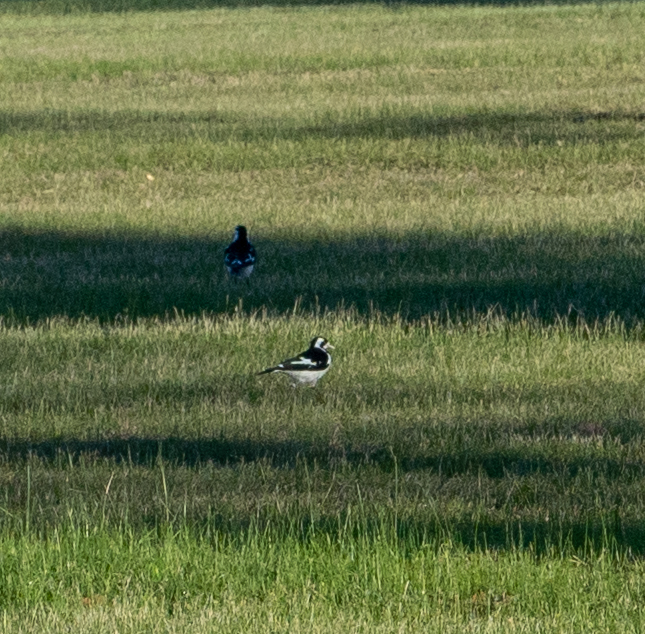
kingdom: Animalia
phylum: Chordata
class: Aves
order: Passeriformes
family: Monarchidae
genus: Grallina
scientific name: Grallina cyanoleuca
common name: Magpie-lark
